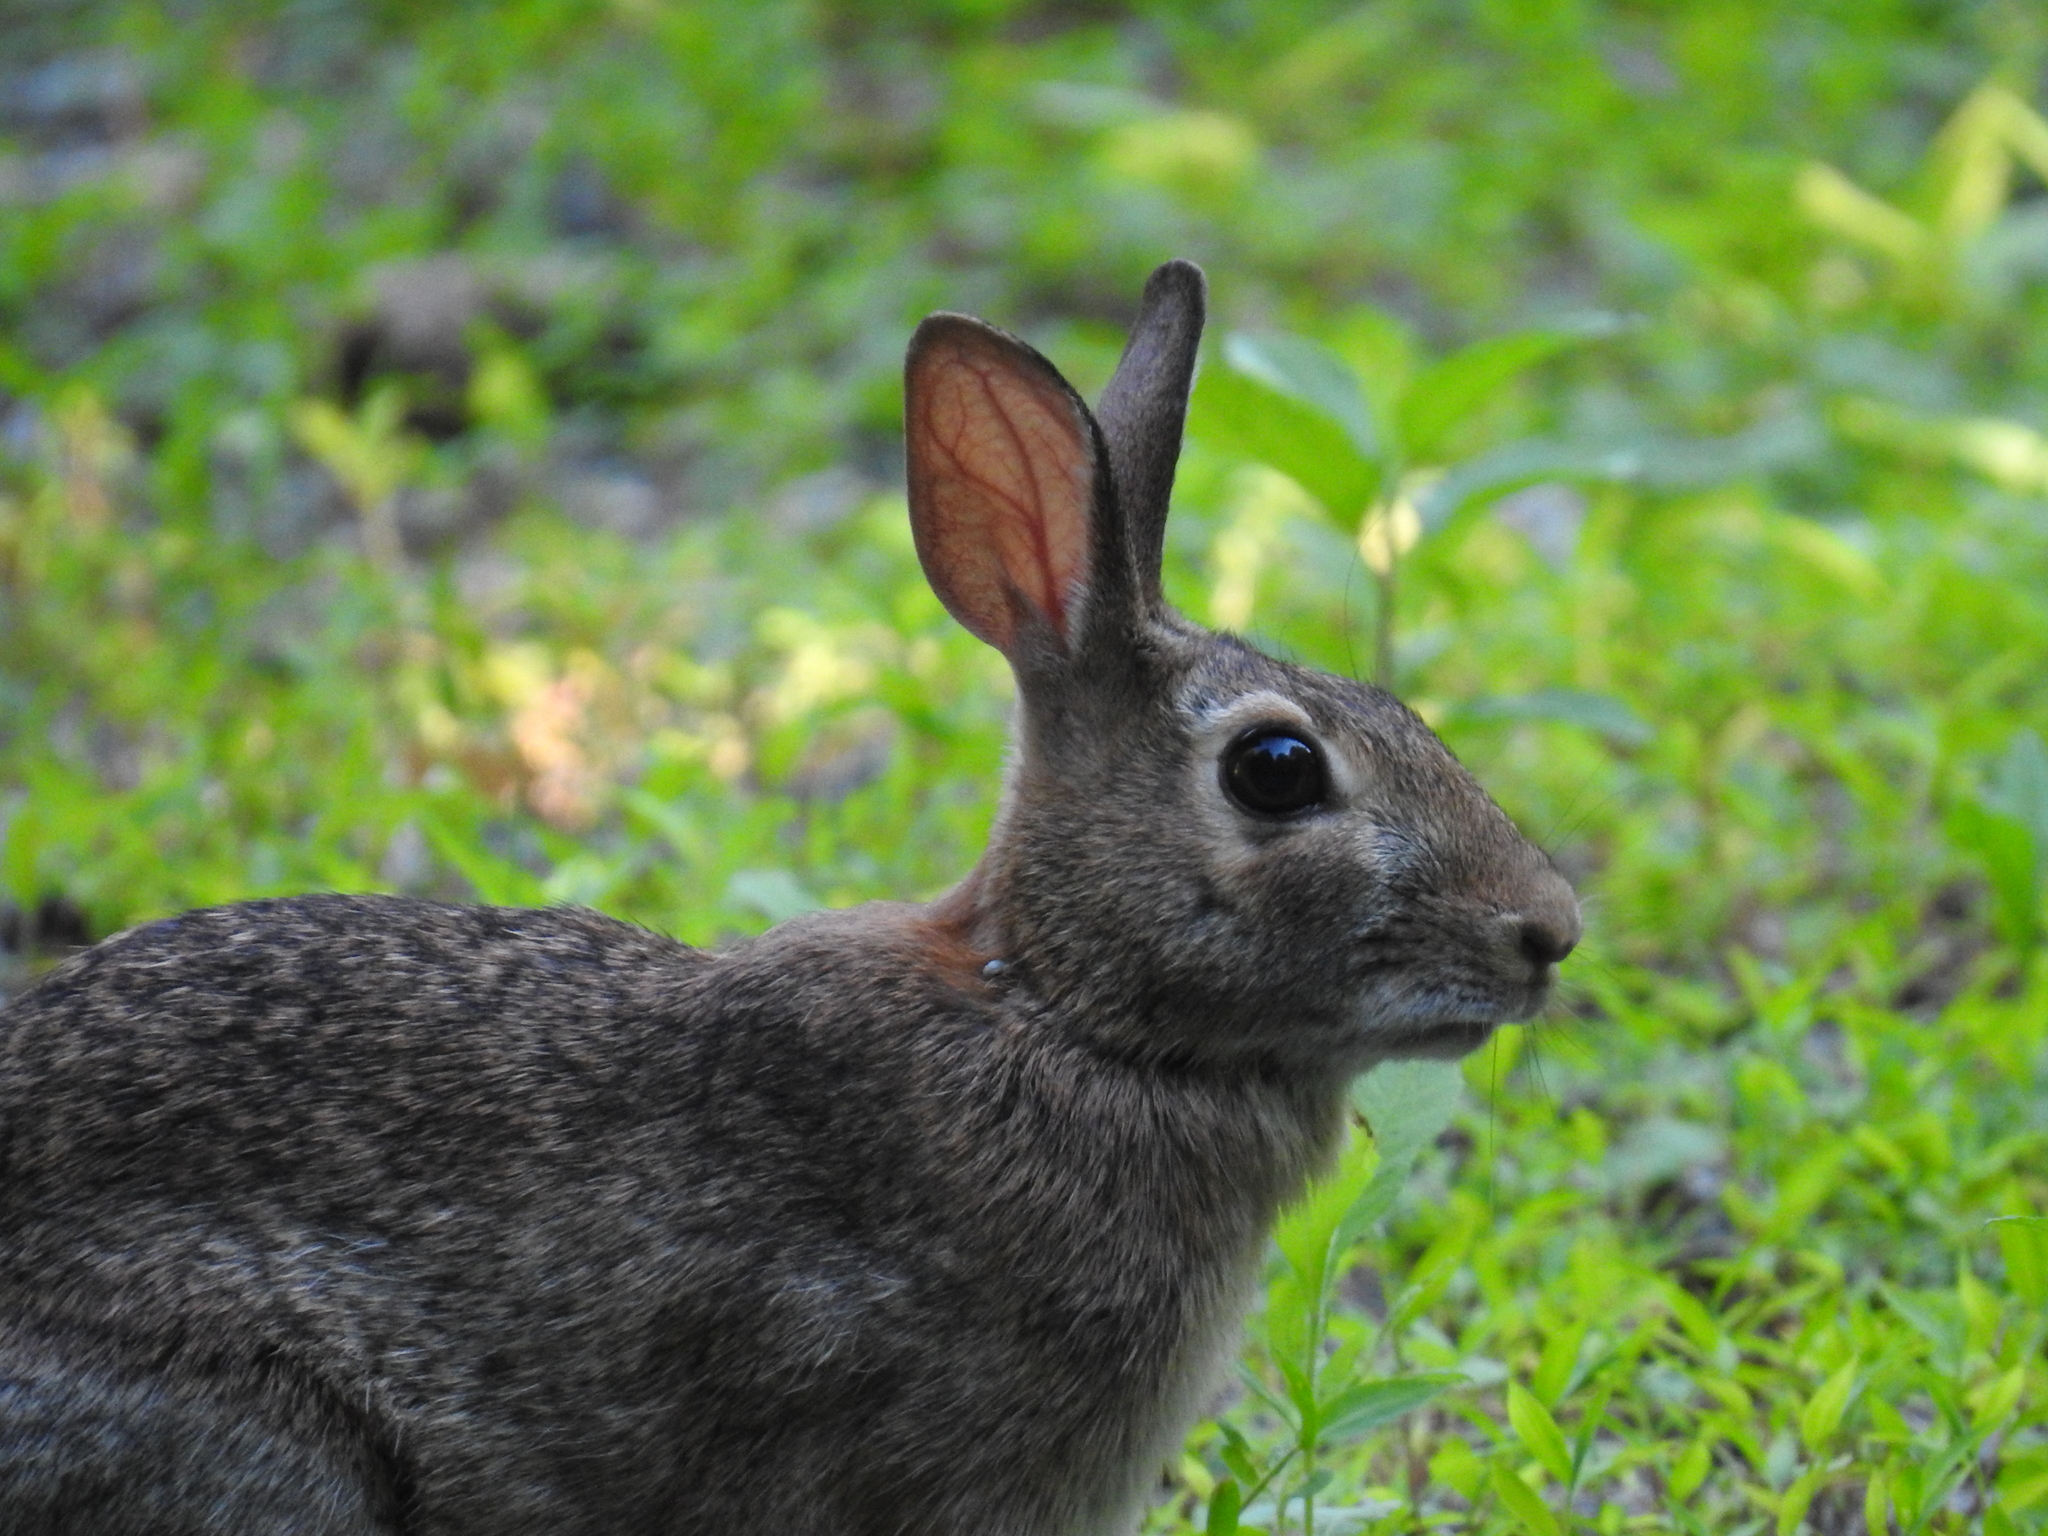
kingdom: Animalia
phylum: Chordata
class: Mammalia
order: Lagomorpha
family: Leporidae
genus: Sylvilagus
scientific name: Sylvilagus floridanus
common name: Eastern cottontail
